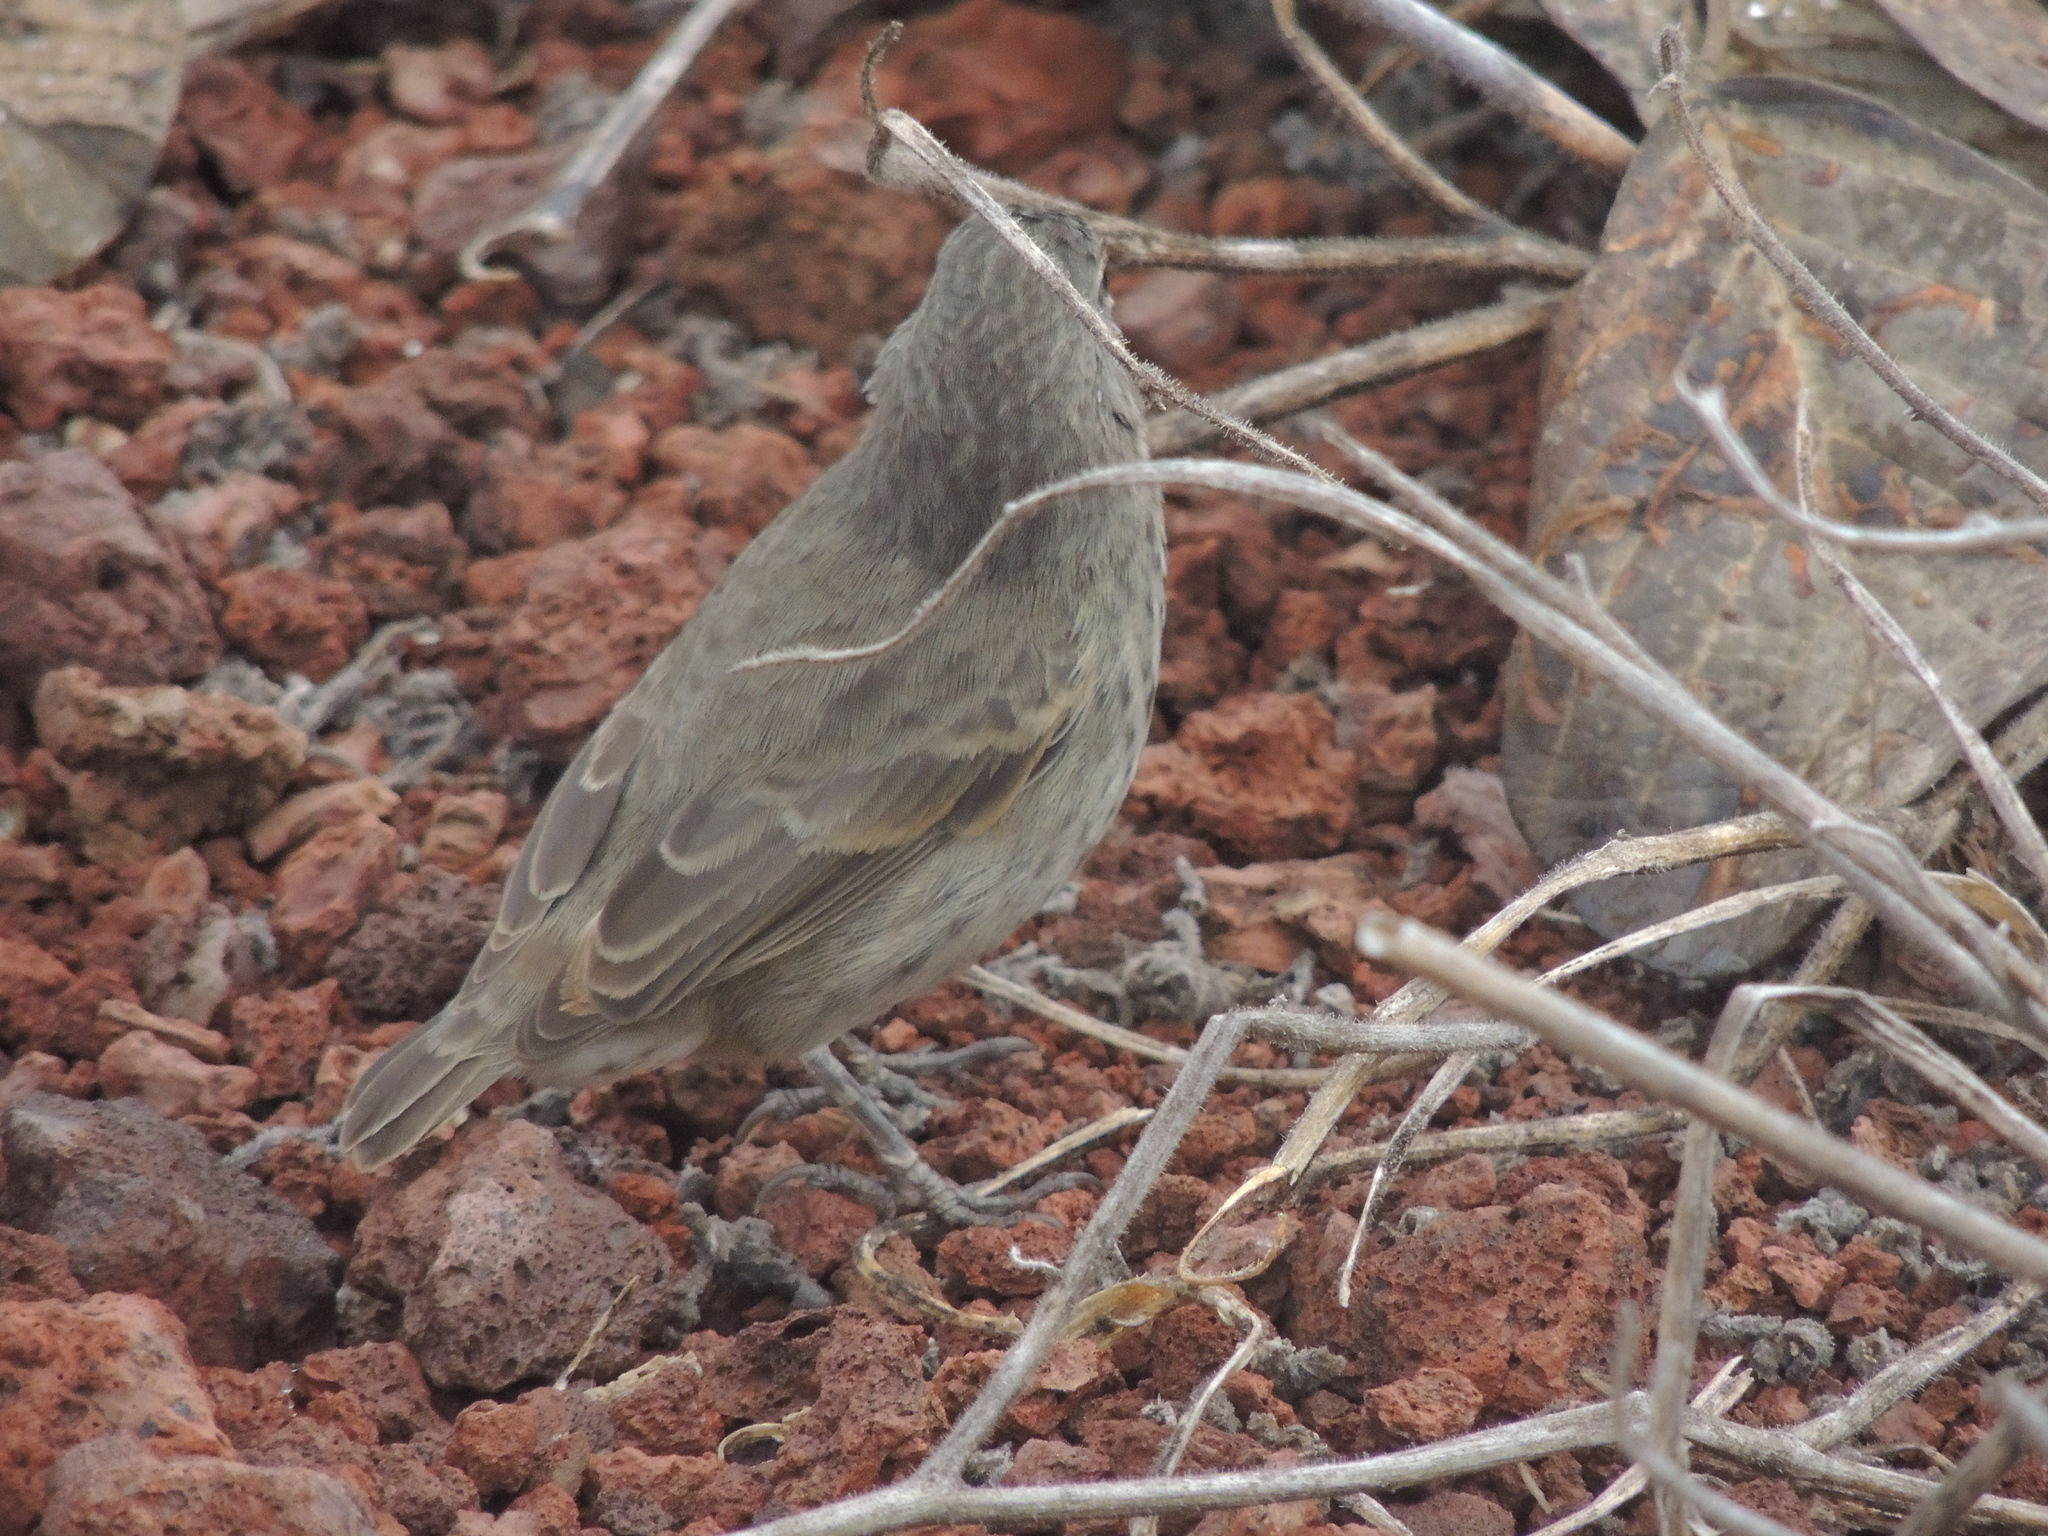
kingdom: Animalia
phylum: Chordata
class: Aves
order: Passeriformes
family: Thraupidae
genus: Geospiza
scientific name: Geospiza fuliginosa
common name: Small ground finch
